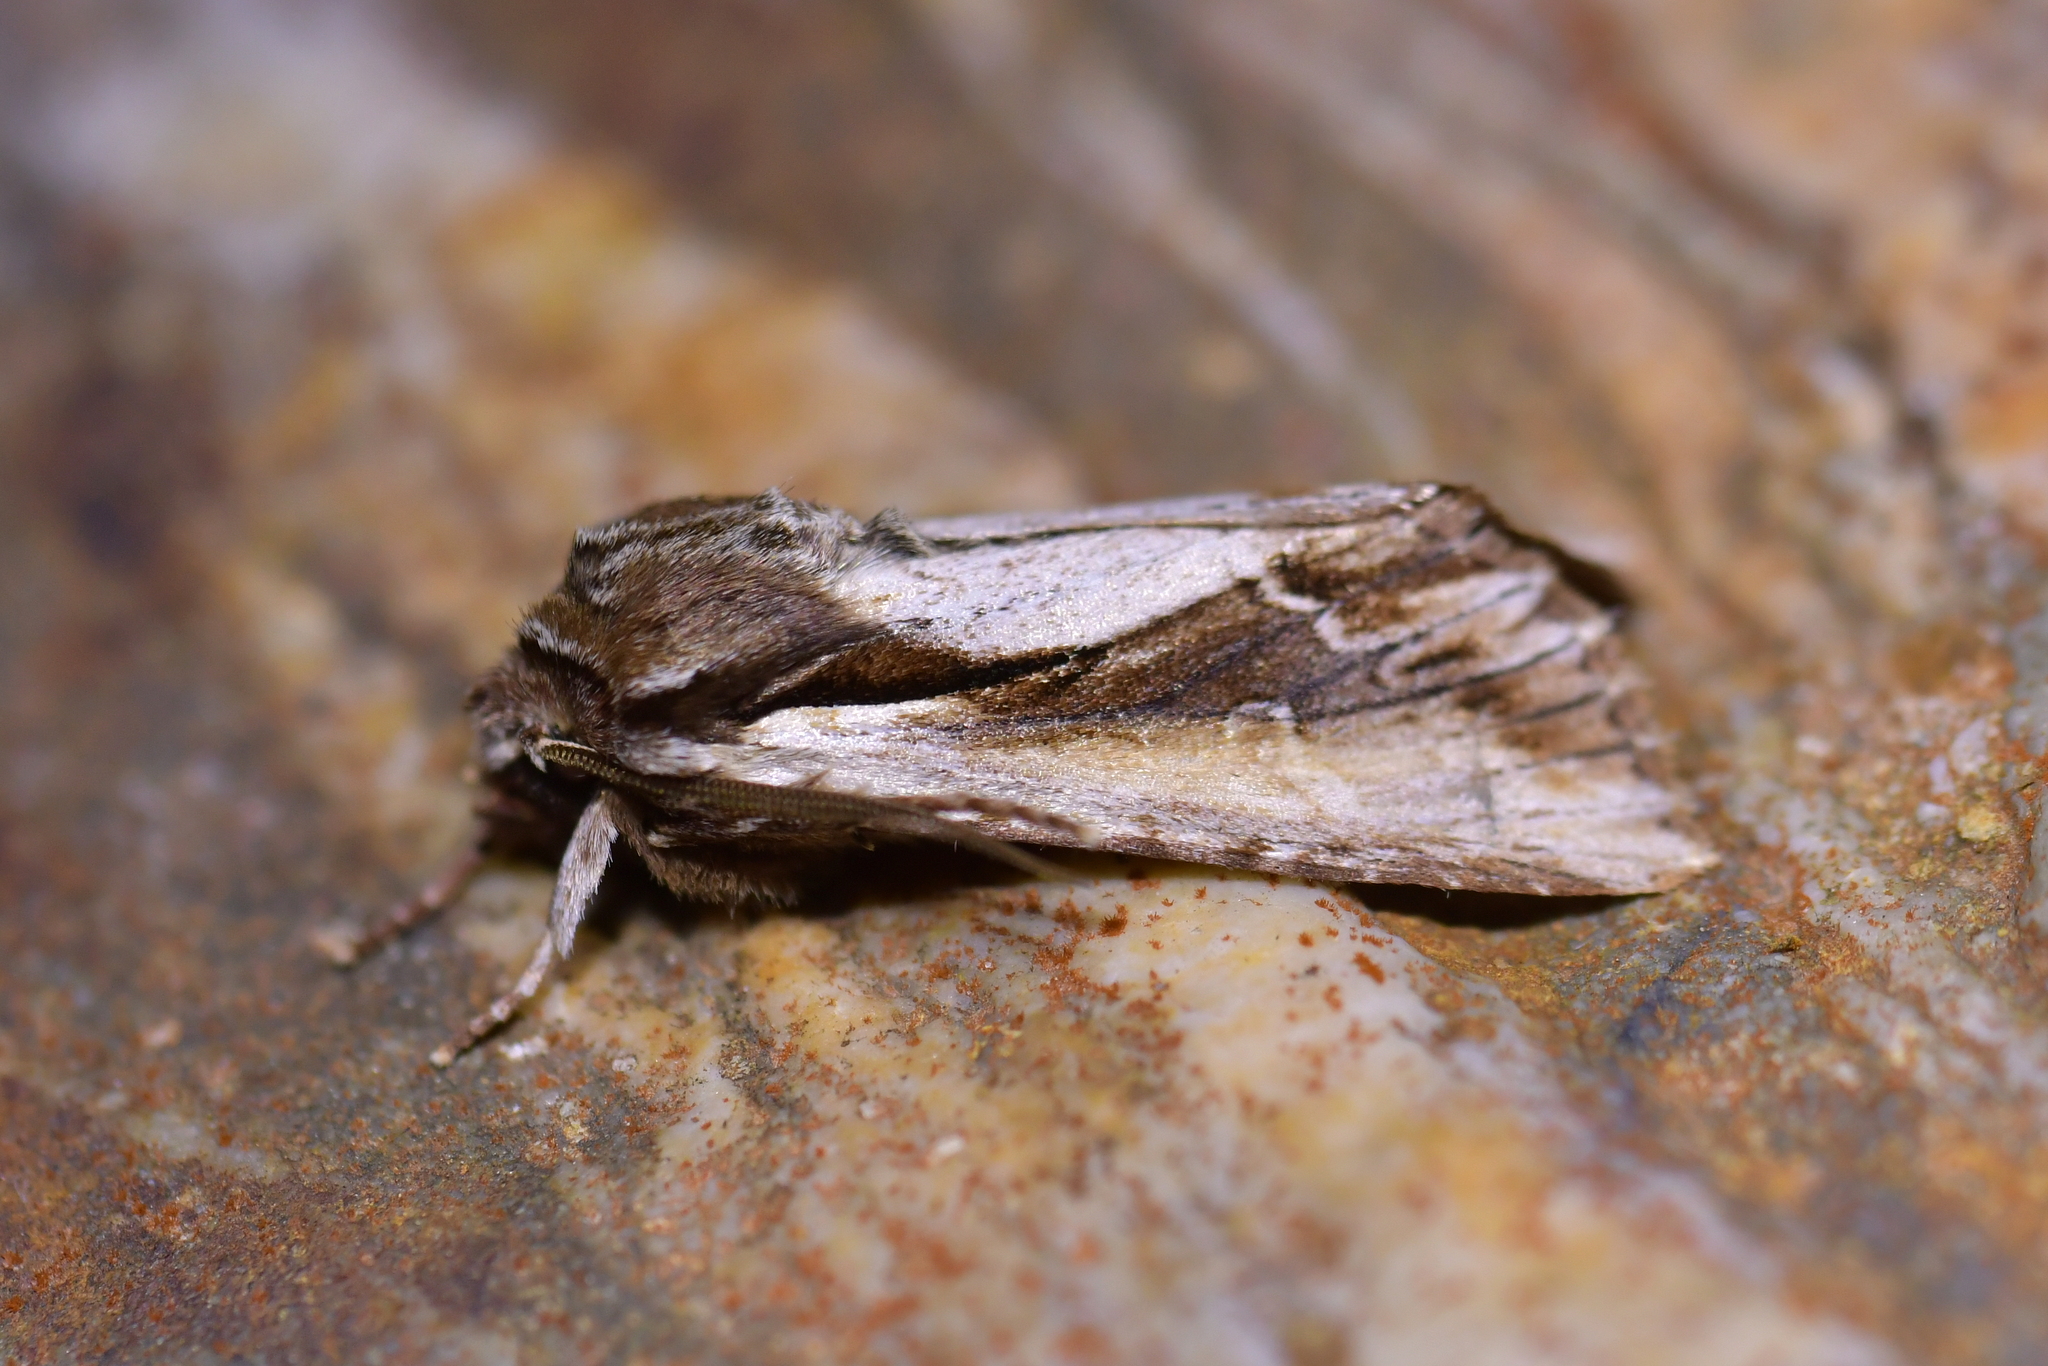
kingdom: Animalia
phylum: Arthropoda
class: Insecta
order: Lepidoptera
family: Noctuidae
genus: Ichneutica
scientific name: Ichneutica
